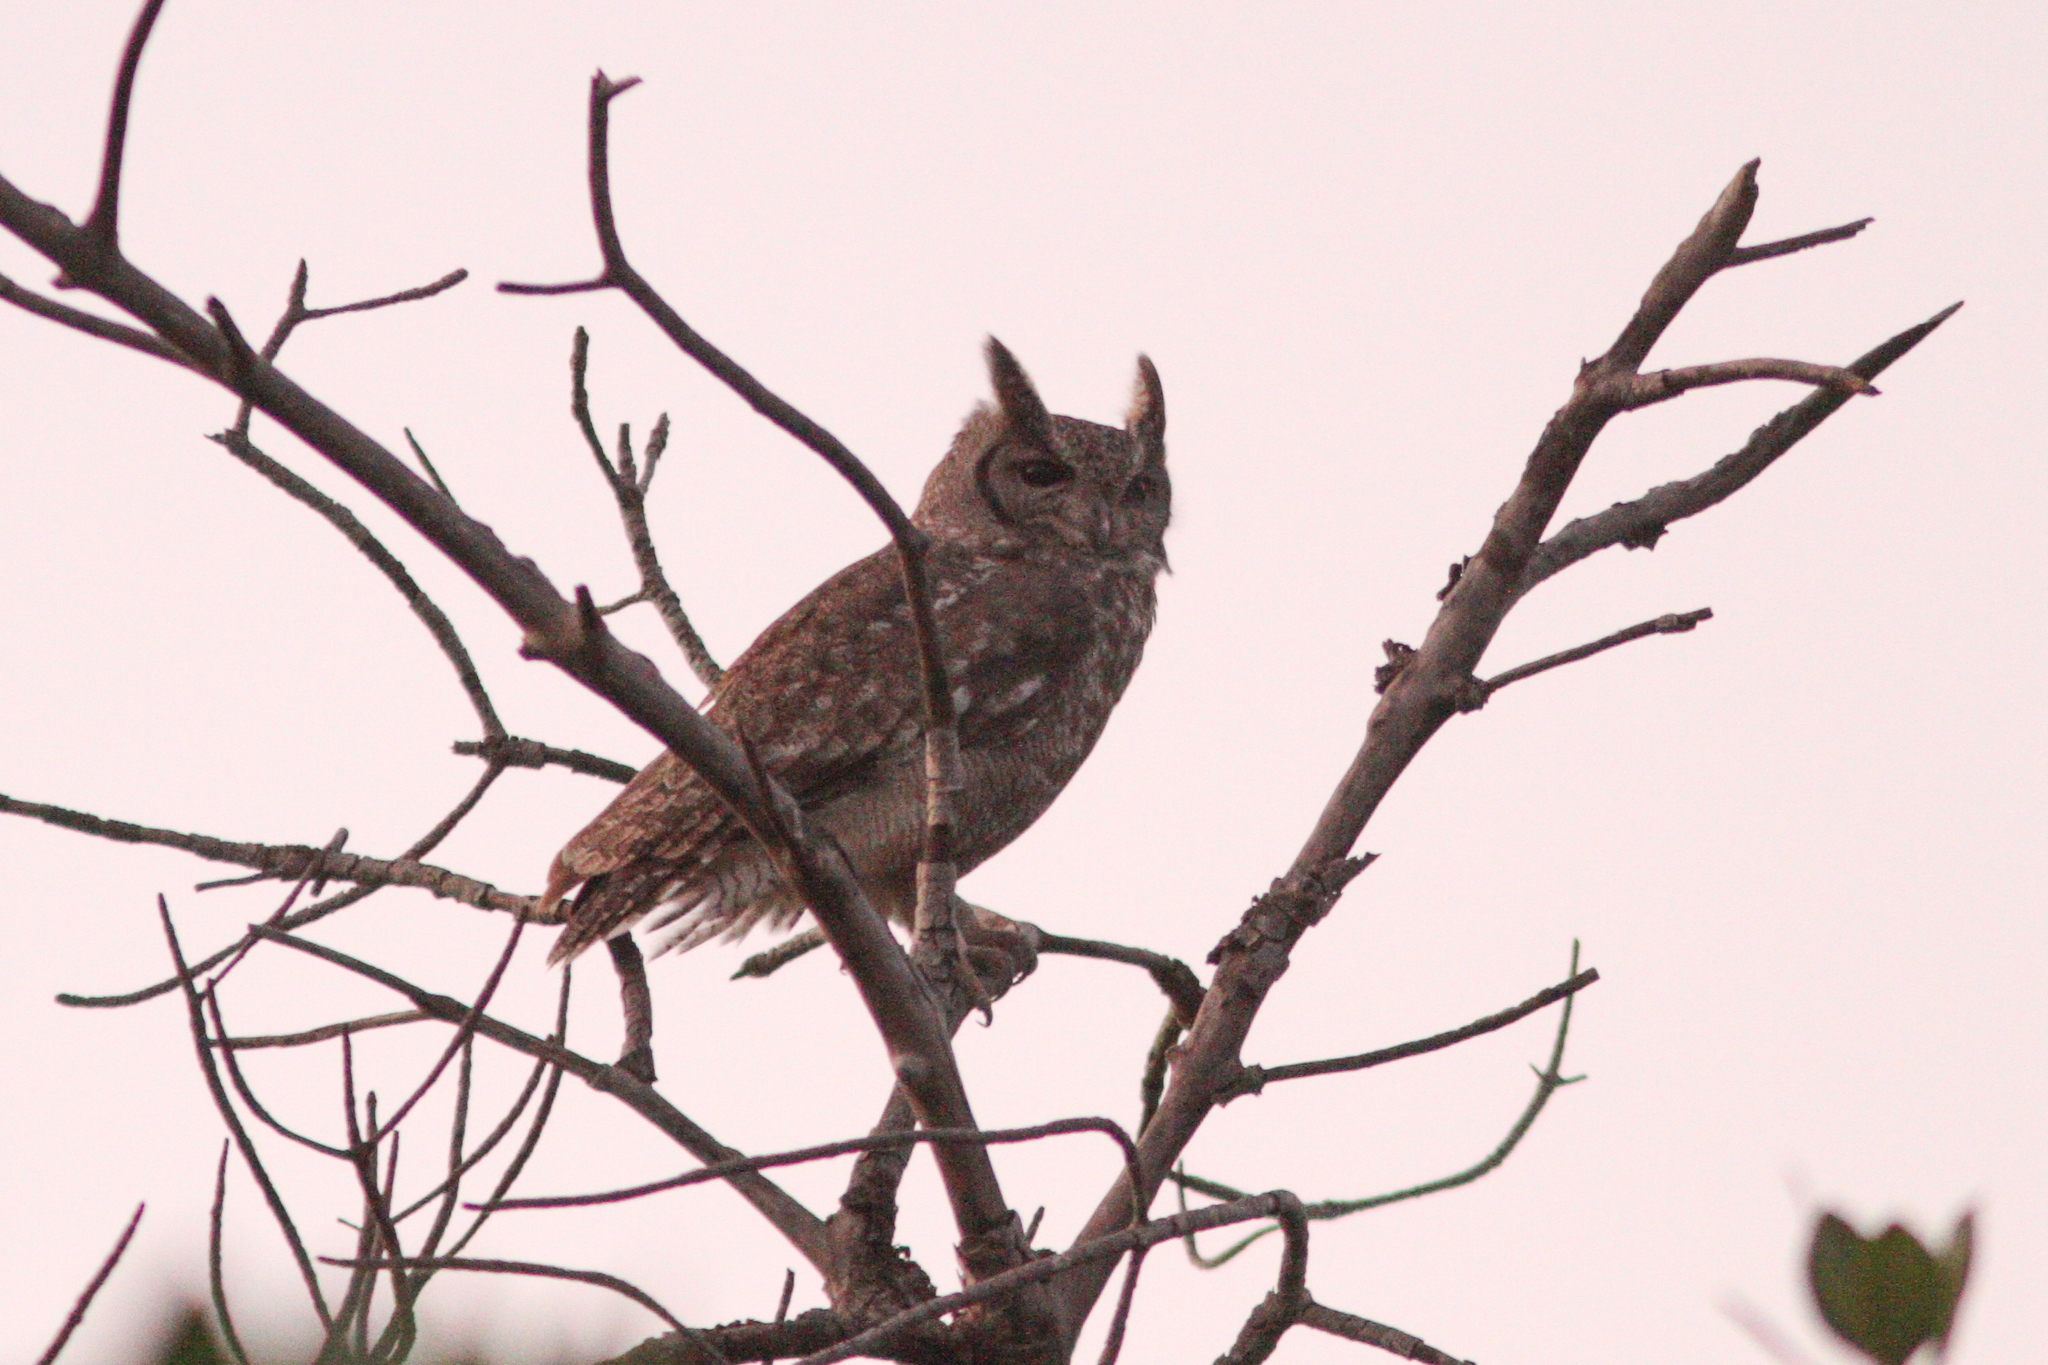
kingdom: Animalia
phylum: Chordata
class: Aves
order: Strigiformes
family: Strigidae
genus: Bubo
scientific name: Bubo cinerascens
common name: Greyish eagle-owl
